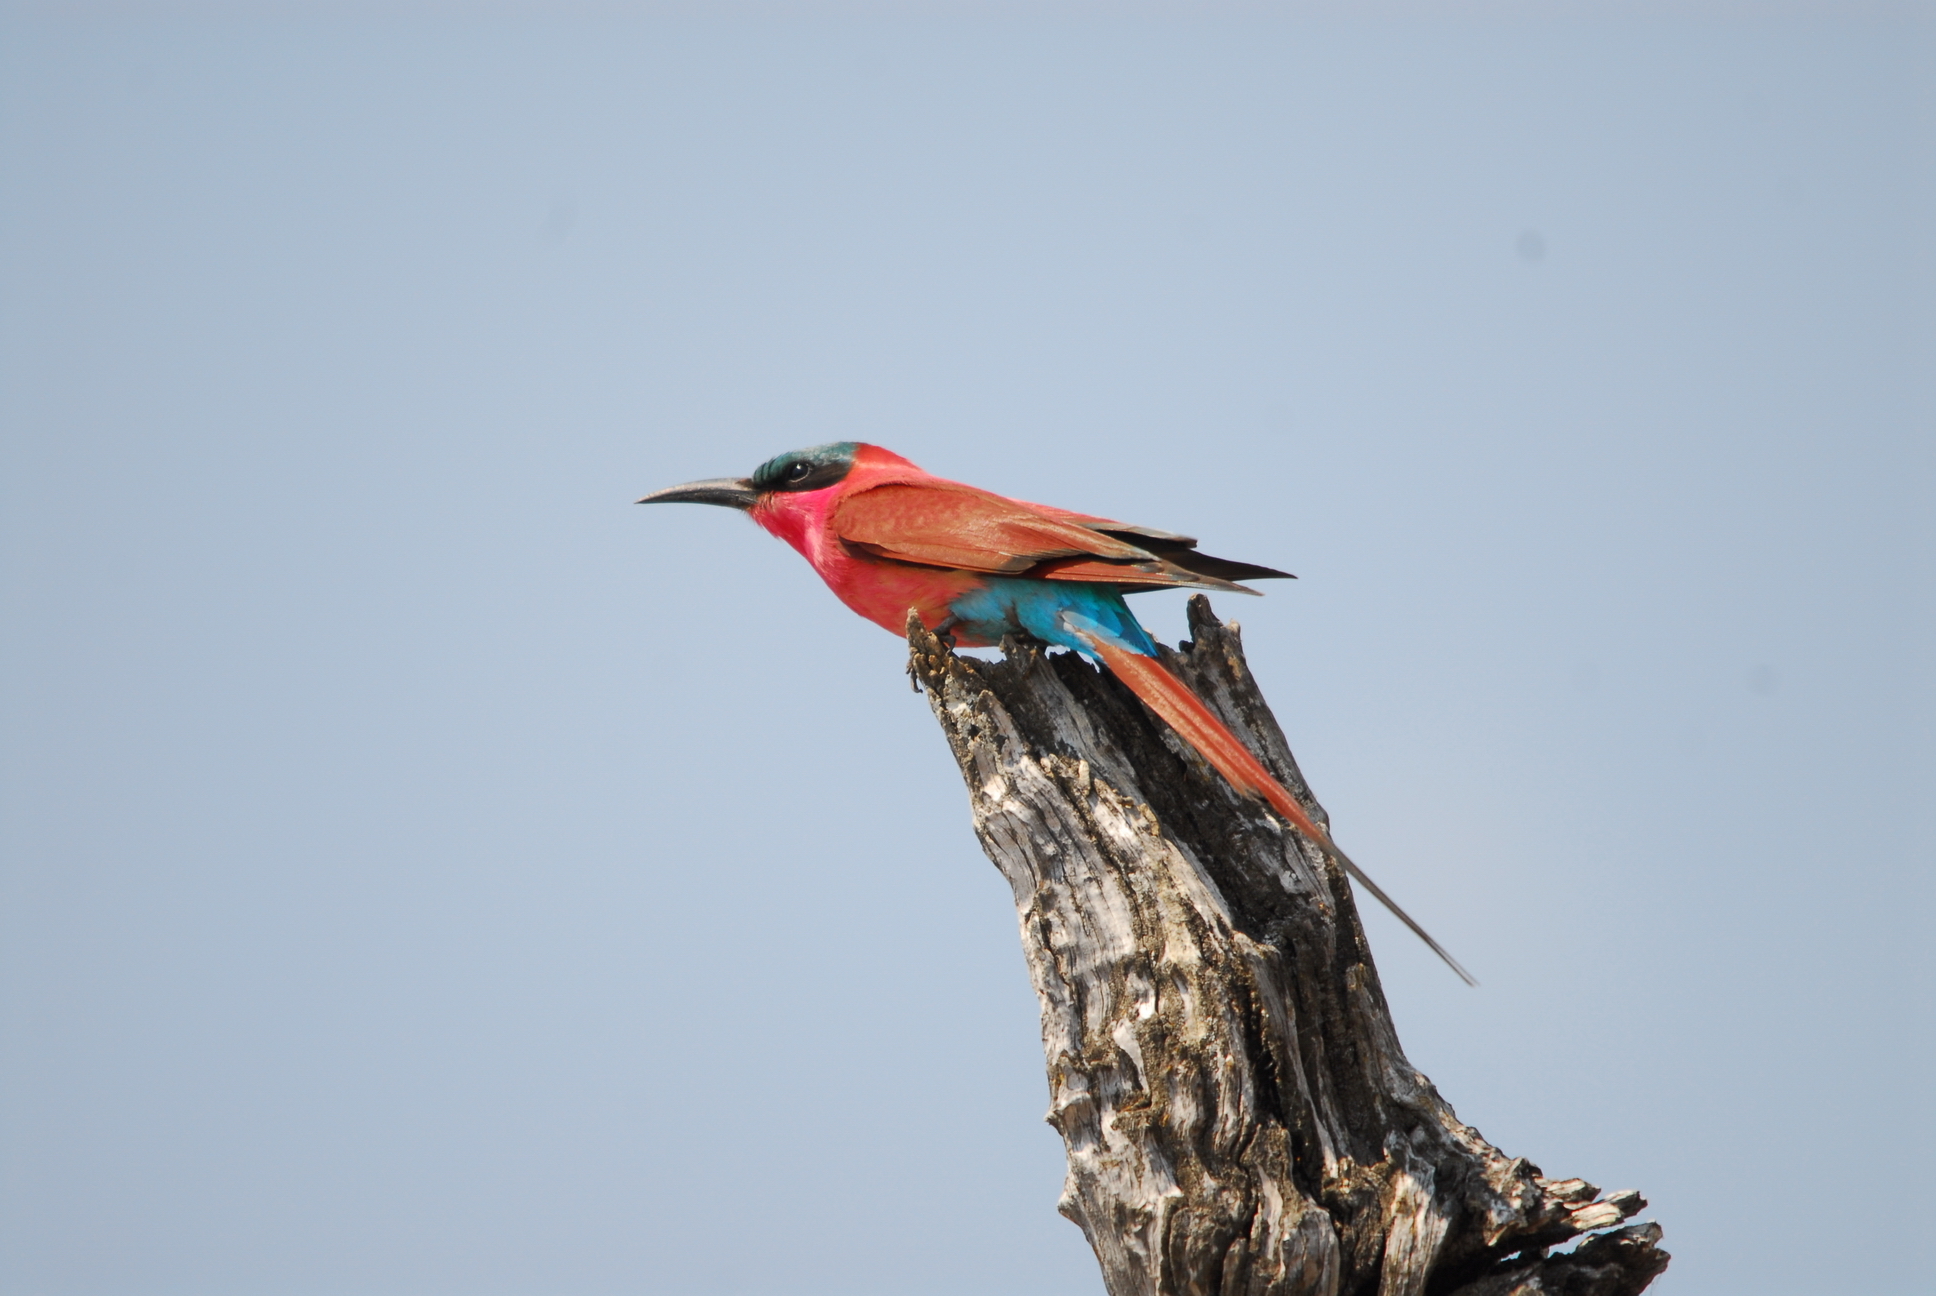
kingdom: Animalia
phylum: Chordata
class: Aves
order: Coraciiformes
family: Meropidae
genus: Merops
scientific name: Merops nubicoides
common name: Southern carmine bee-eater
